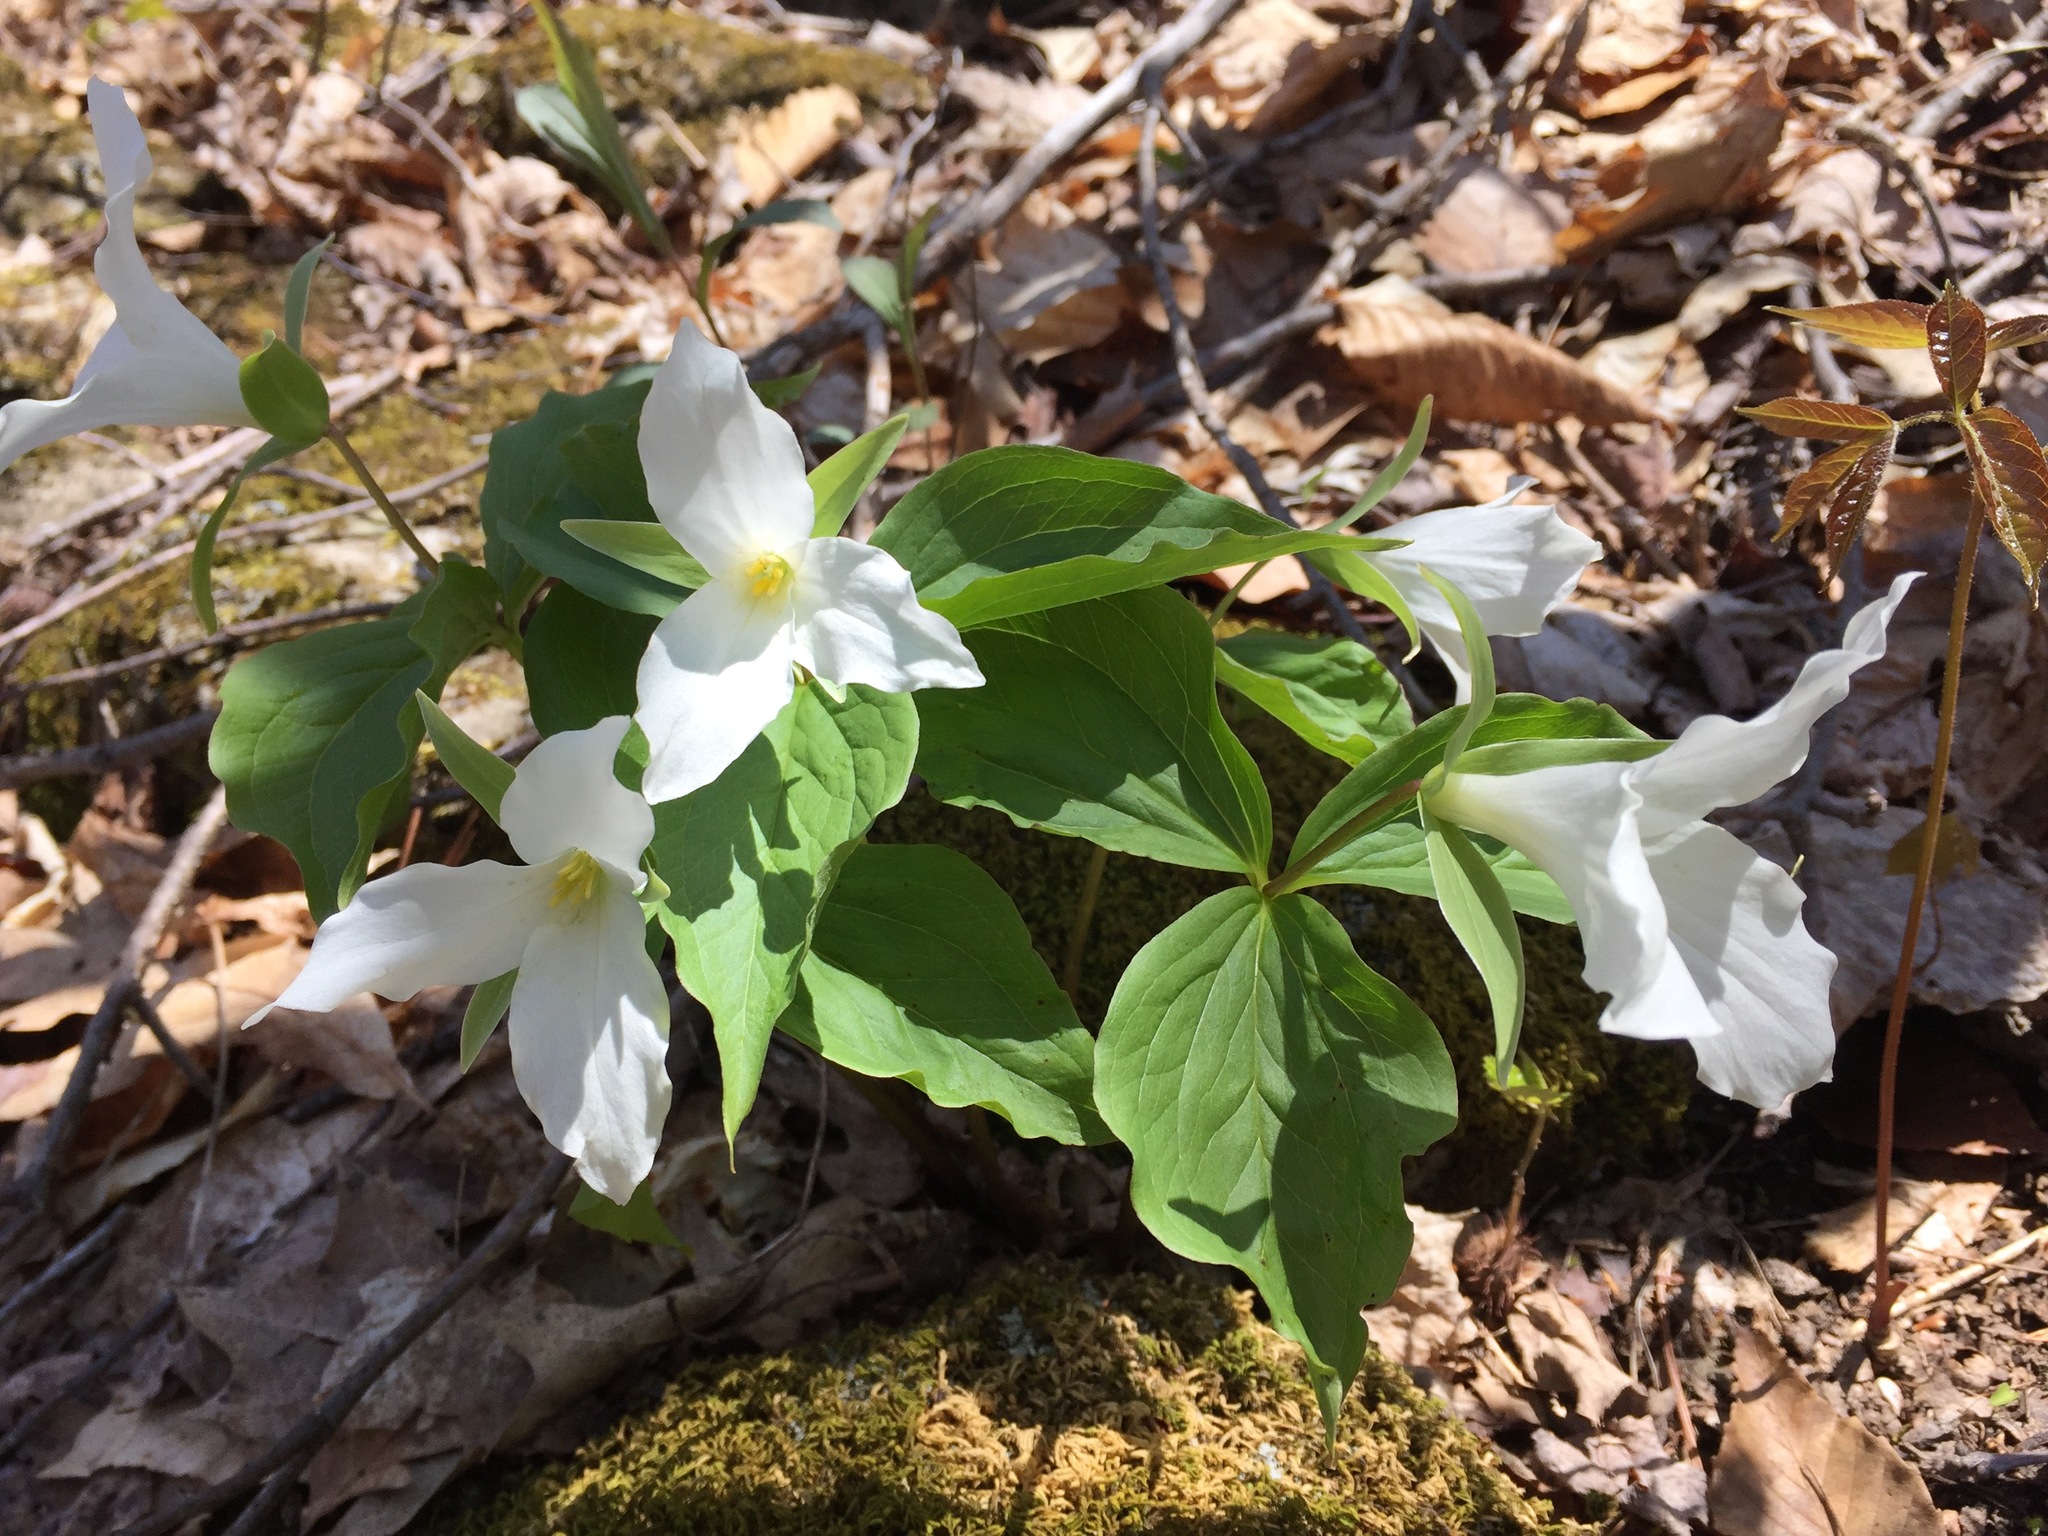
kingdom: Plantae
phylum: Tracheophyta
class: Liliopsida
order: Liliales
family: Melanthiaceae
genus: Trillium
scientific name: Trillium grandiflorum
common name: Great white trillium
